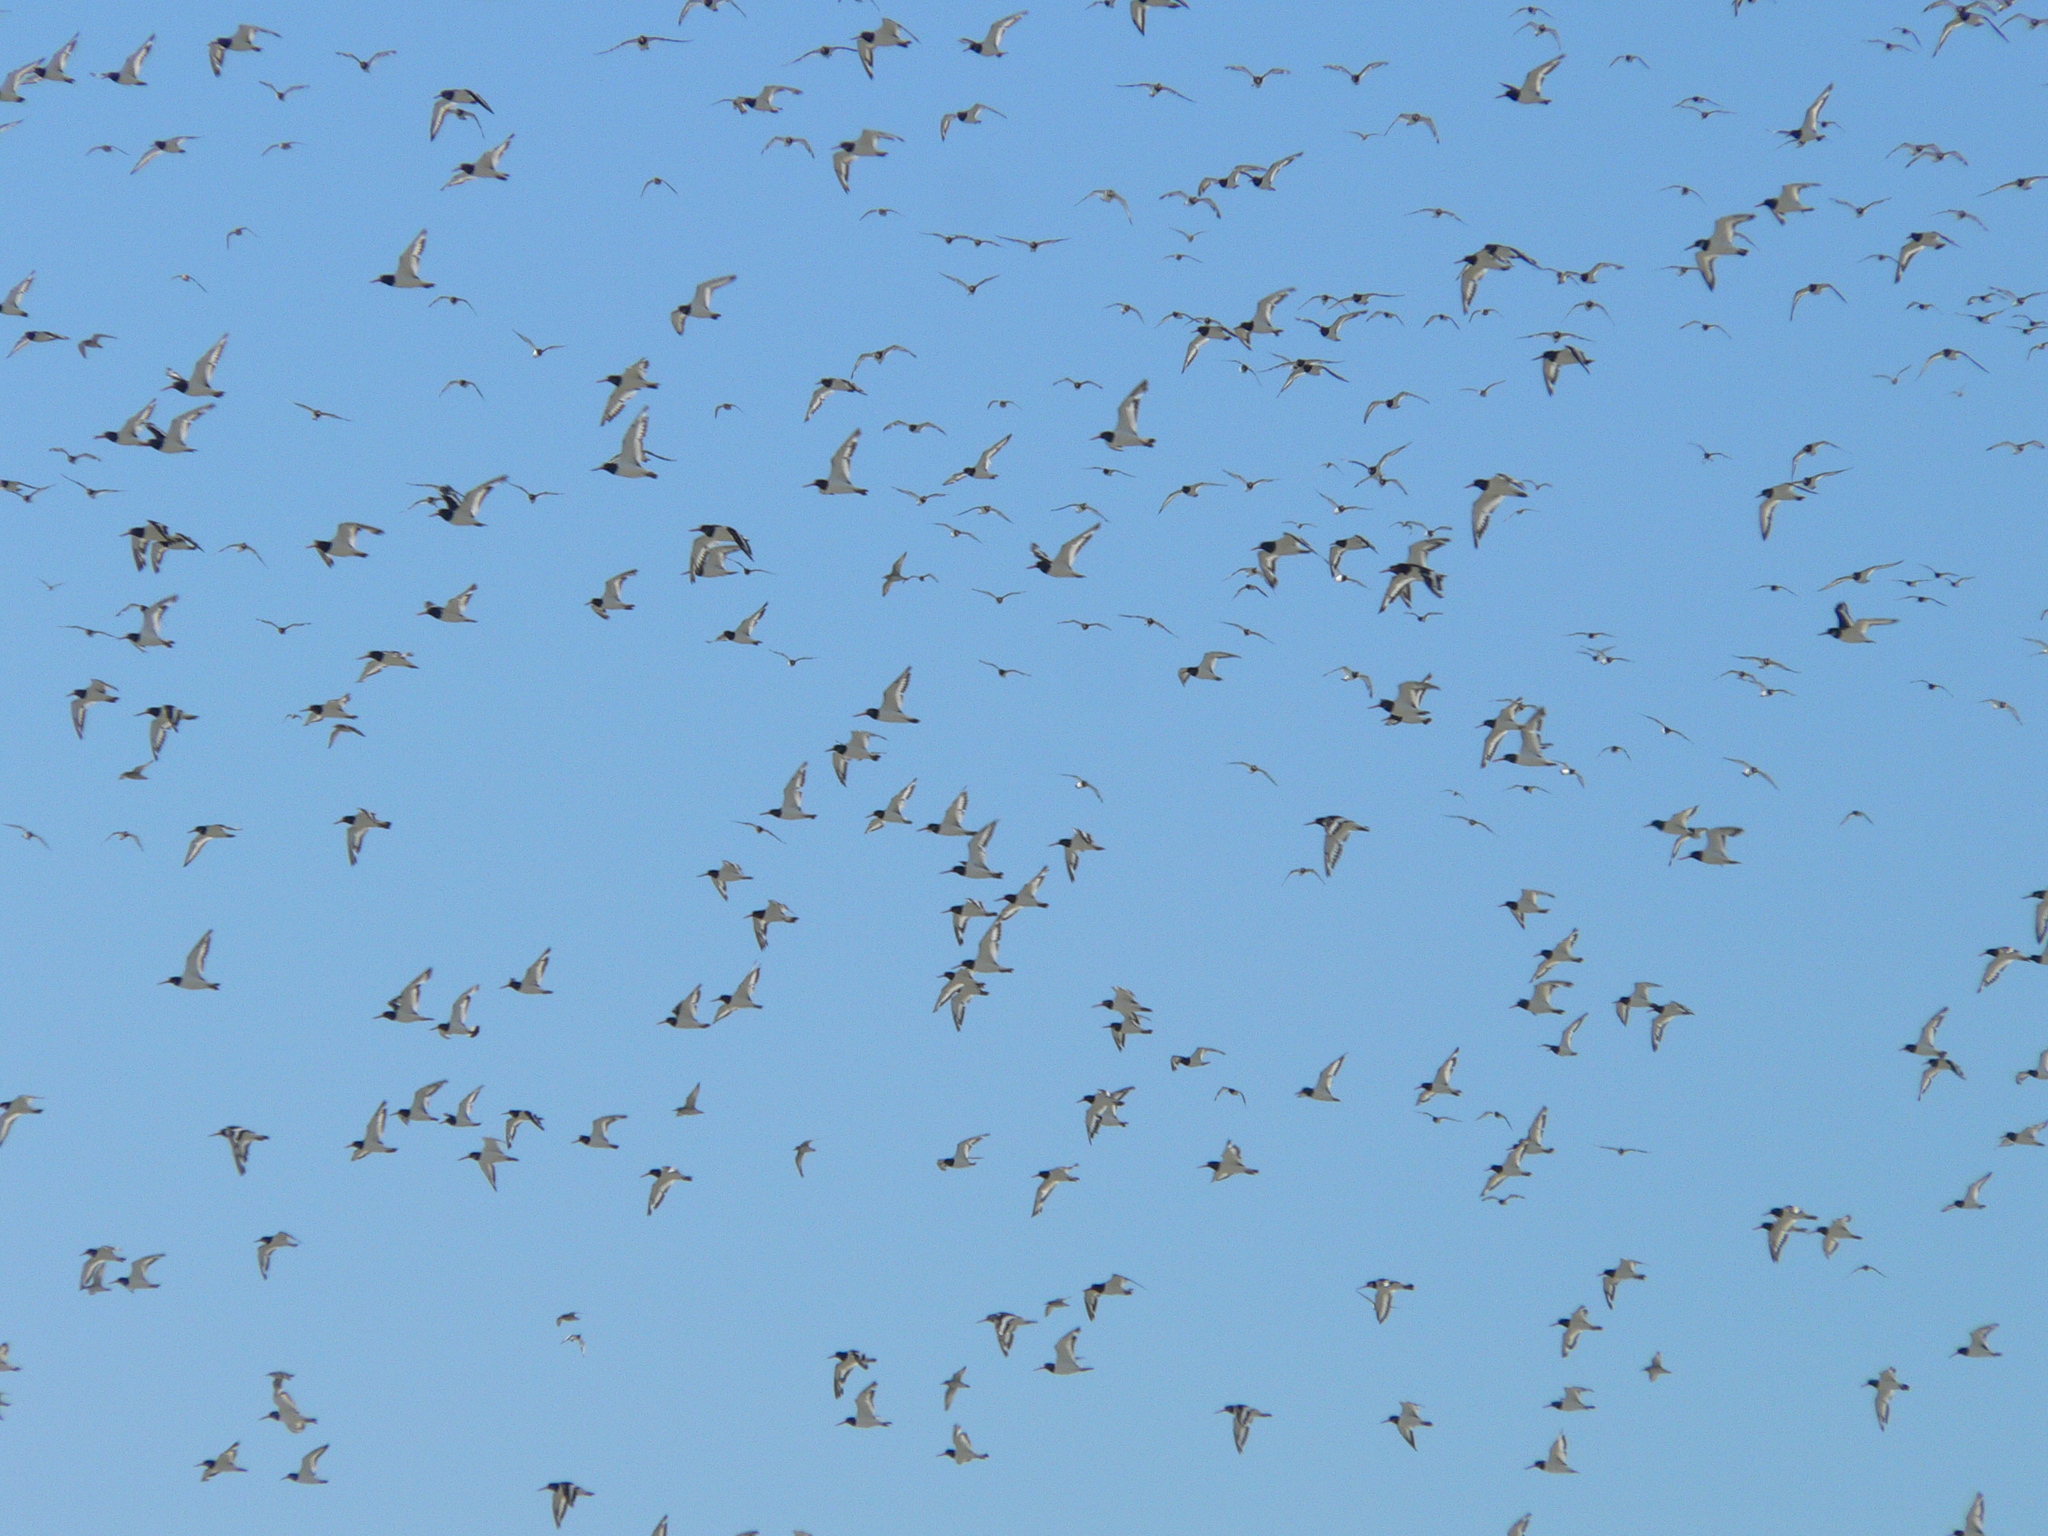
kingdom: Animalia
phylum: Chordata
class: Aves
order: Charadriiformes
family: Haematopodidae
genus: Haematopus
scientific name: Haematopus ostralegus
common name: Eurasian oystercatcher
